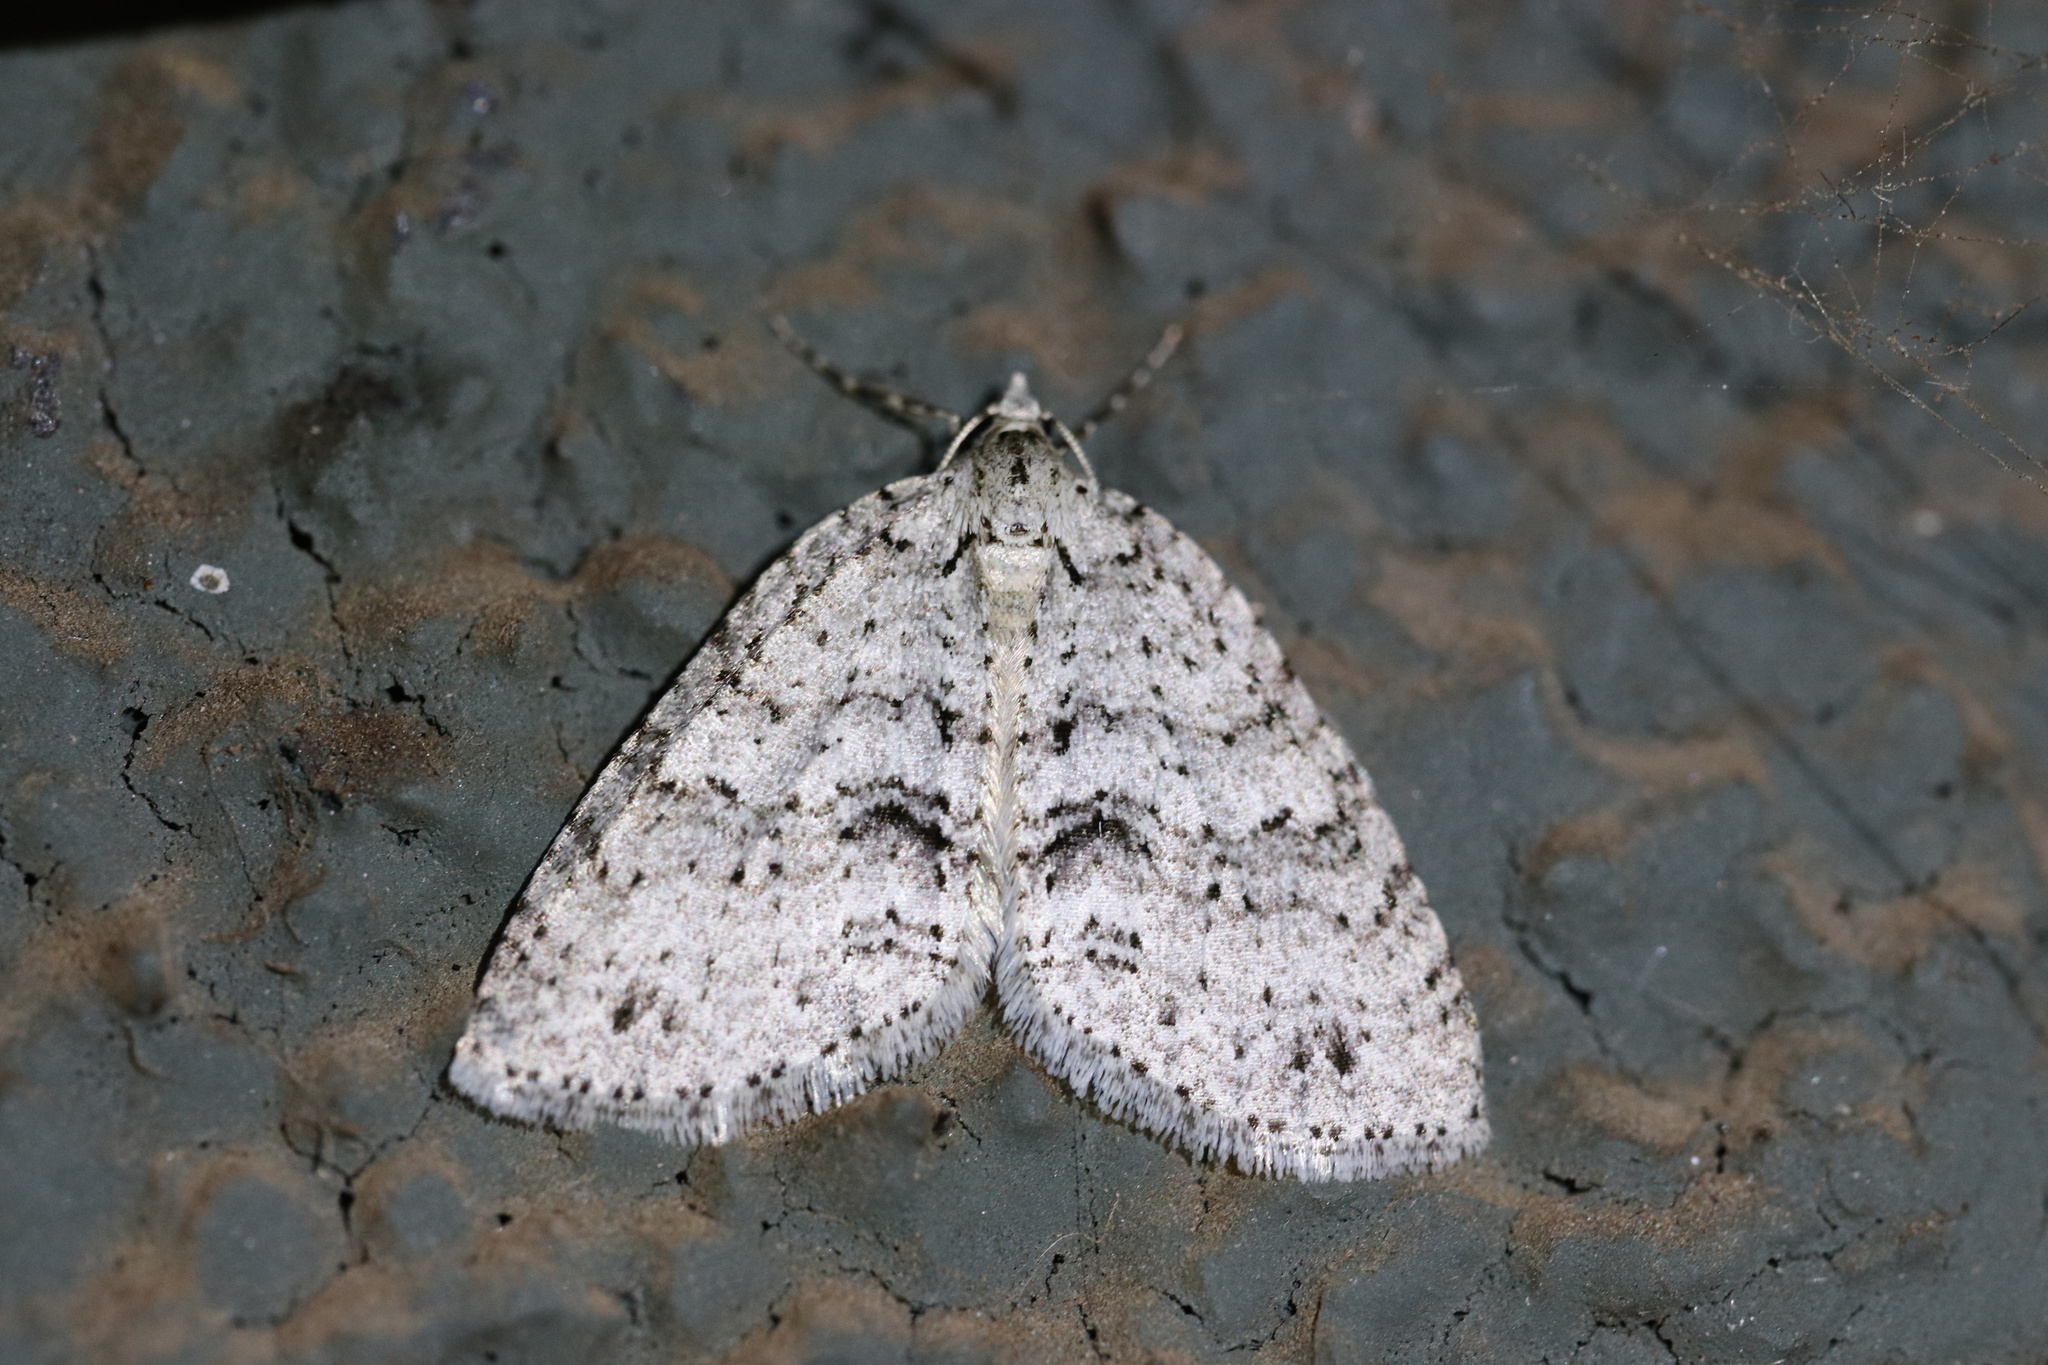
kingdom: Animalia
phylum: Arthropoda
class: Insecta
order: Lepidoptera
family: Geometridae
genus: Hoplosauris
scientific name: Hoplosauris
